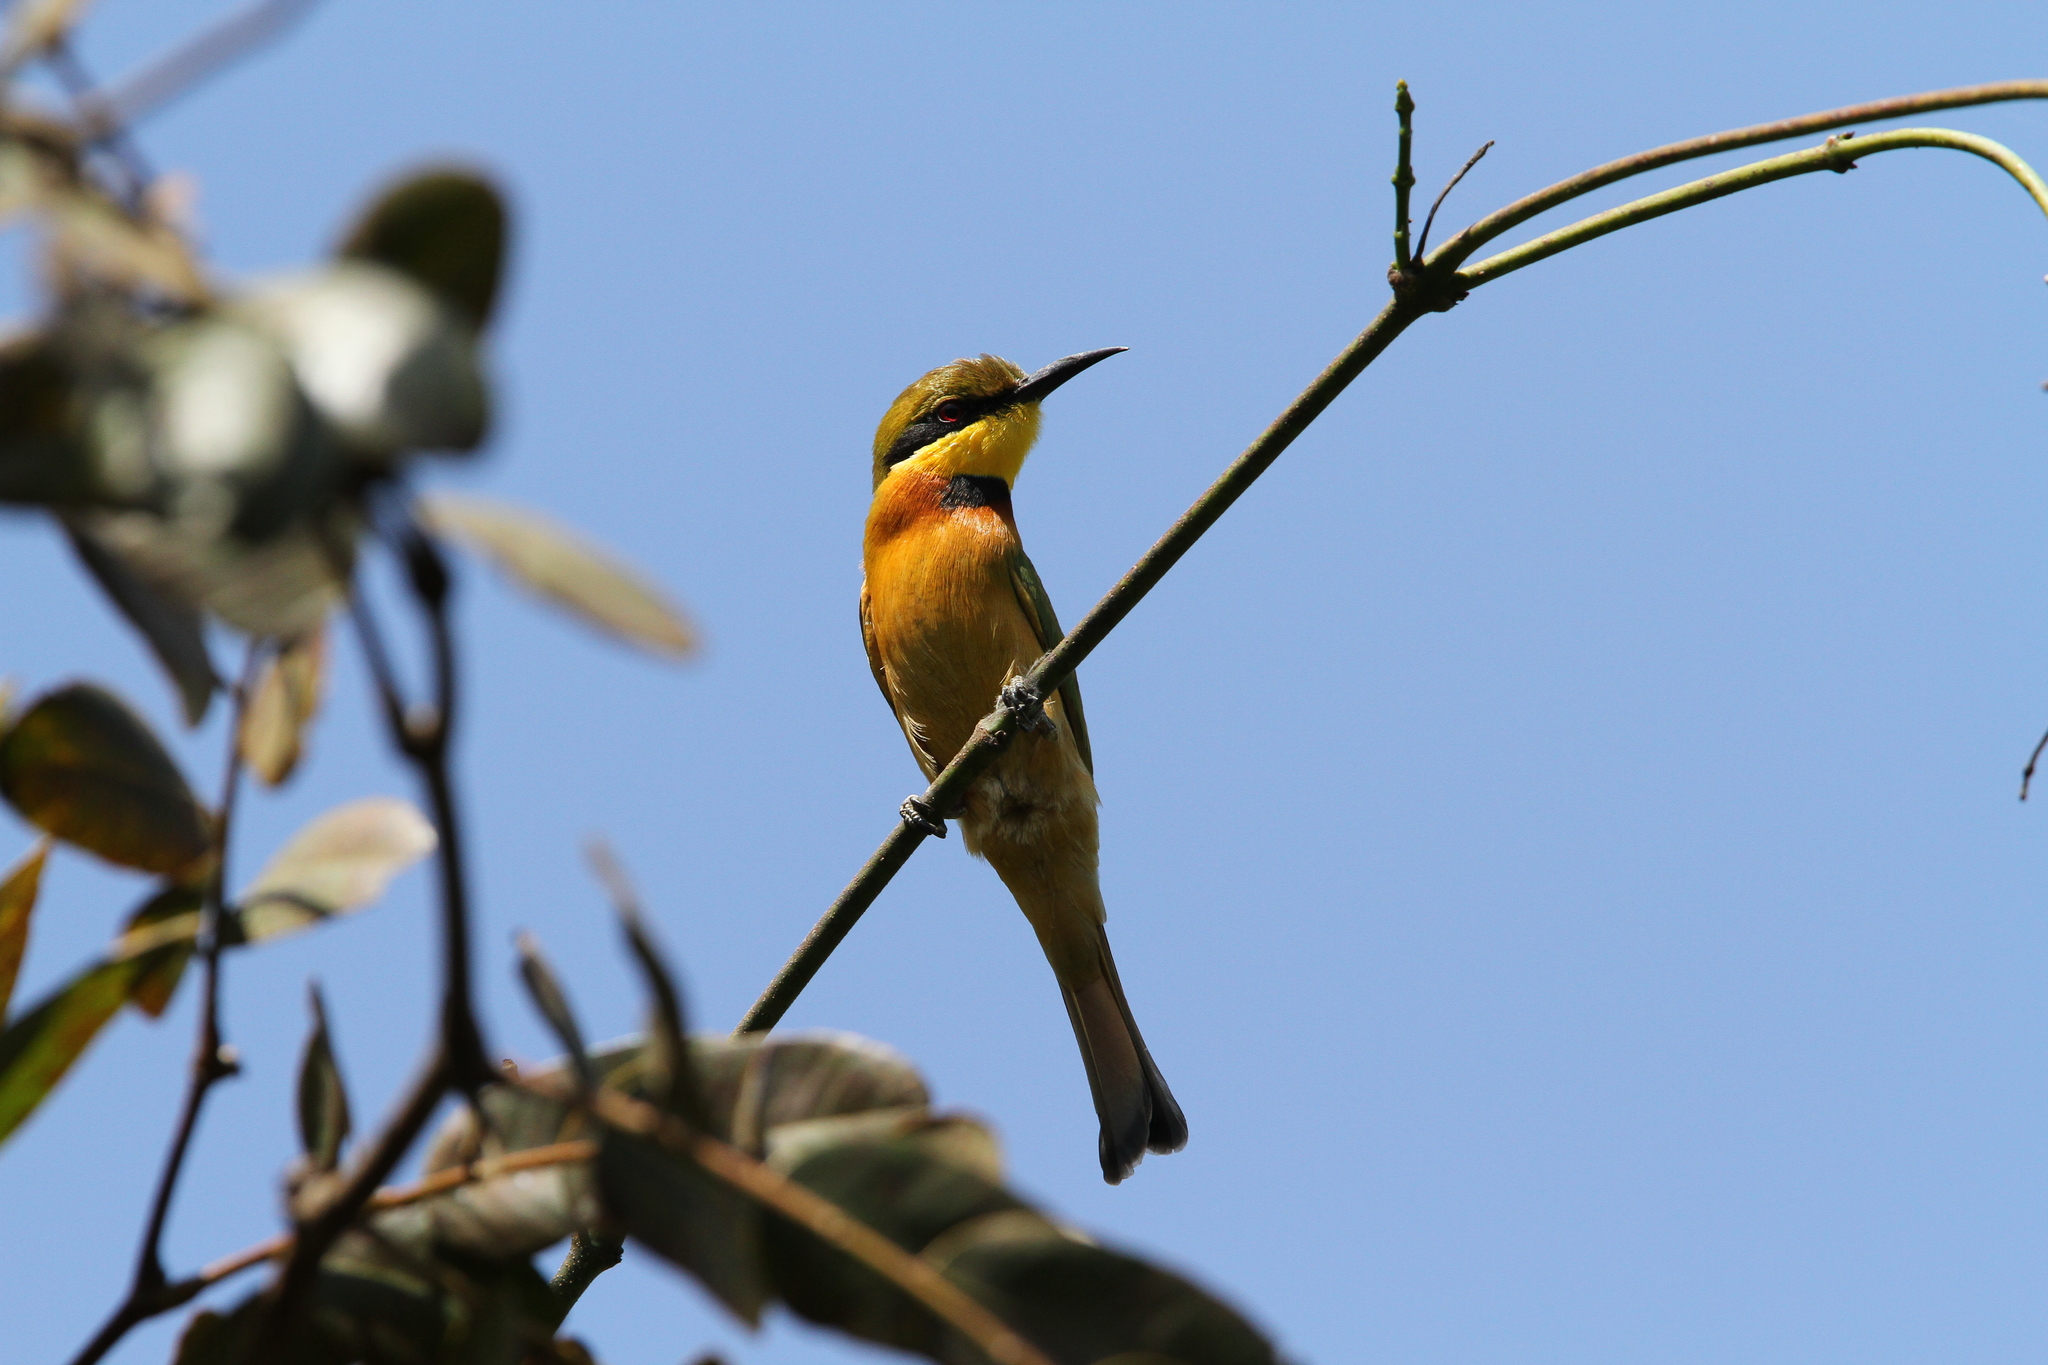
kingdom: Animalia
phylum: Chordata
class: Aves
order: Coraciiformes
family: Meropidae
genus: Merops
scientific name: Merops pusillus
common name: Little bee-eater
